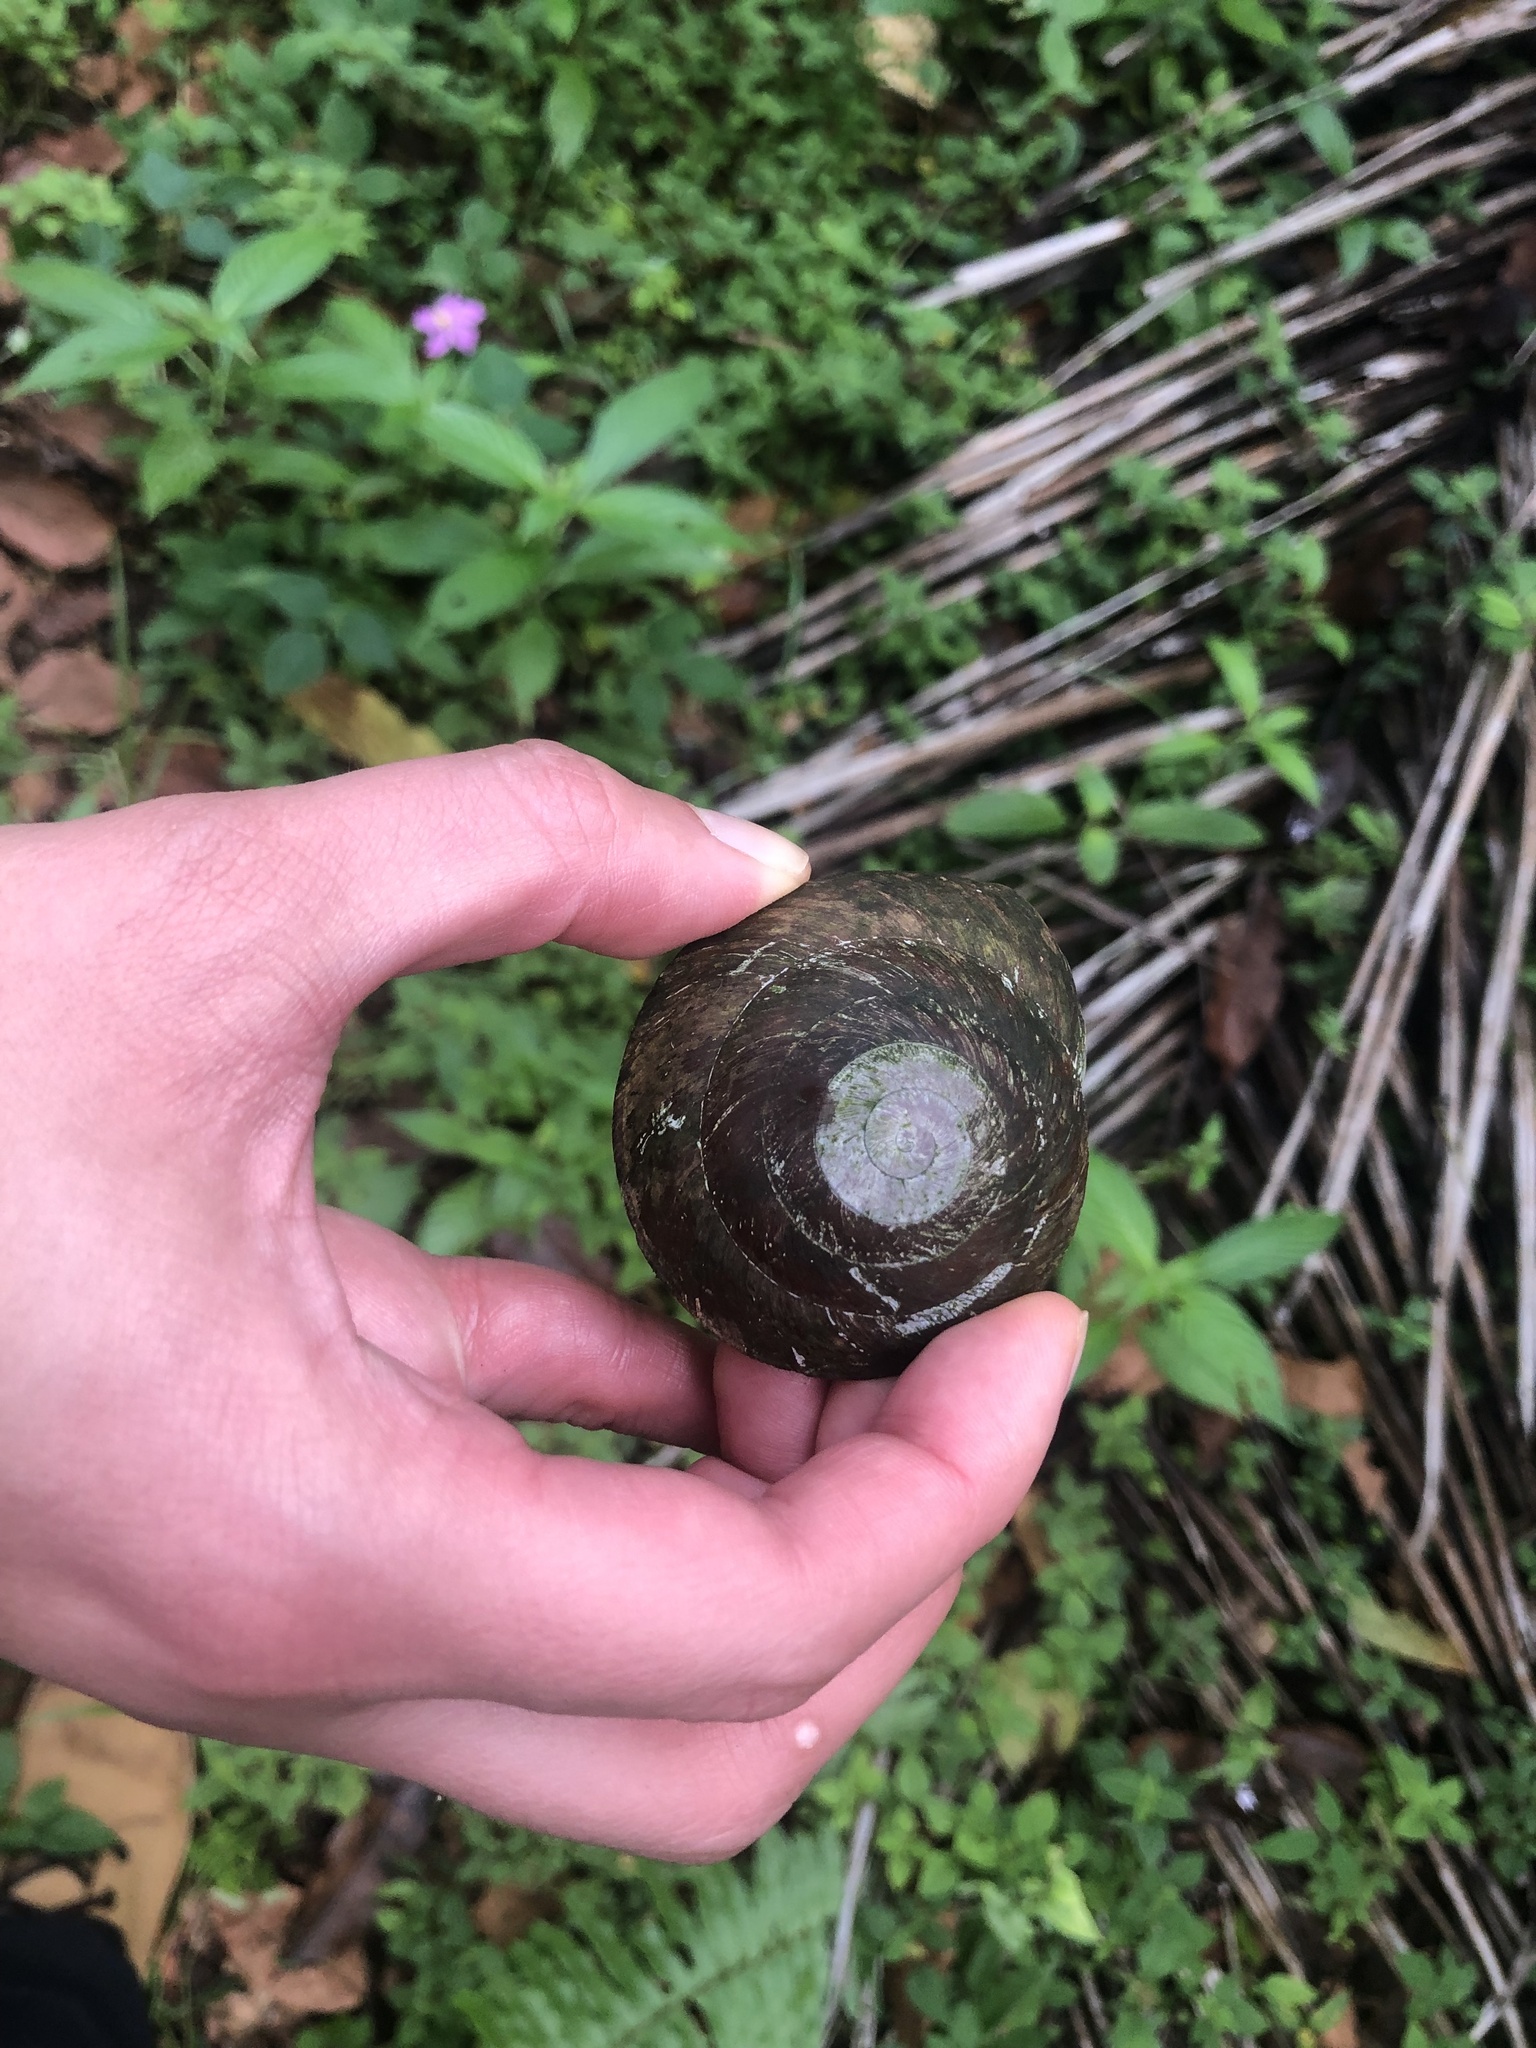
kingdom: Animalia
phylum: Mollusca
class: Gastropoda
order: Stylommatophora
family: Solaropsidae
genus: Caracolus
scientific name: Caracolus carocolla
